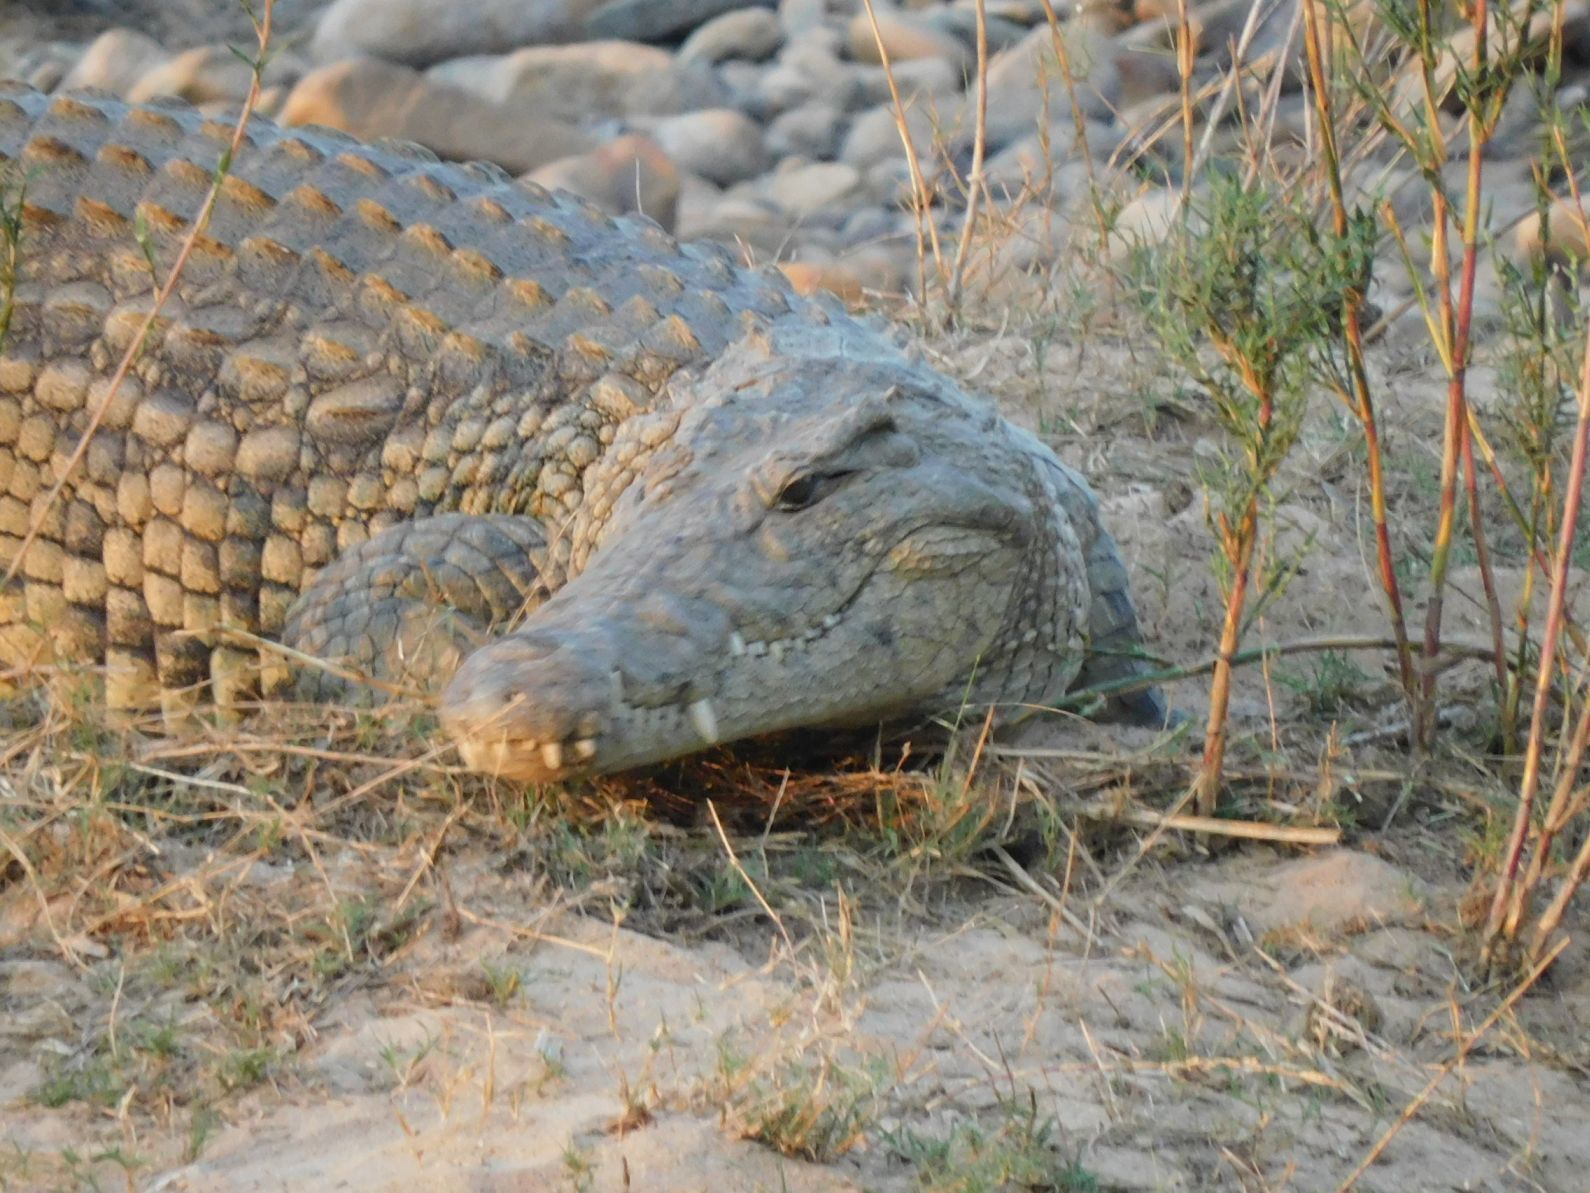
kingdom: Animalia
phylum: Chordata
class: Crocodylia
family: Crocodylidae
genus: Crocodylus
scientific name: Crocodylus niloticus
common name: Nile crocodile
